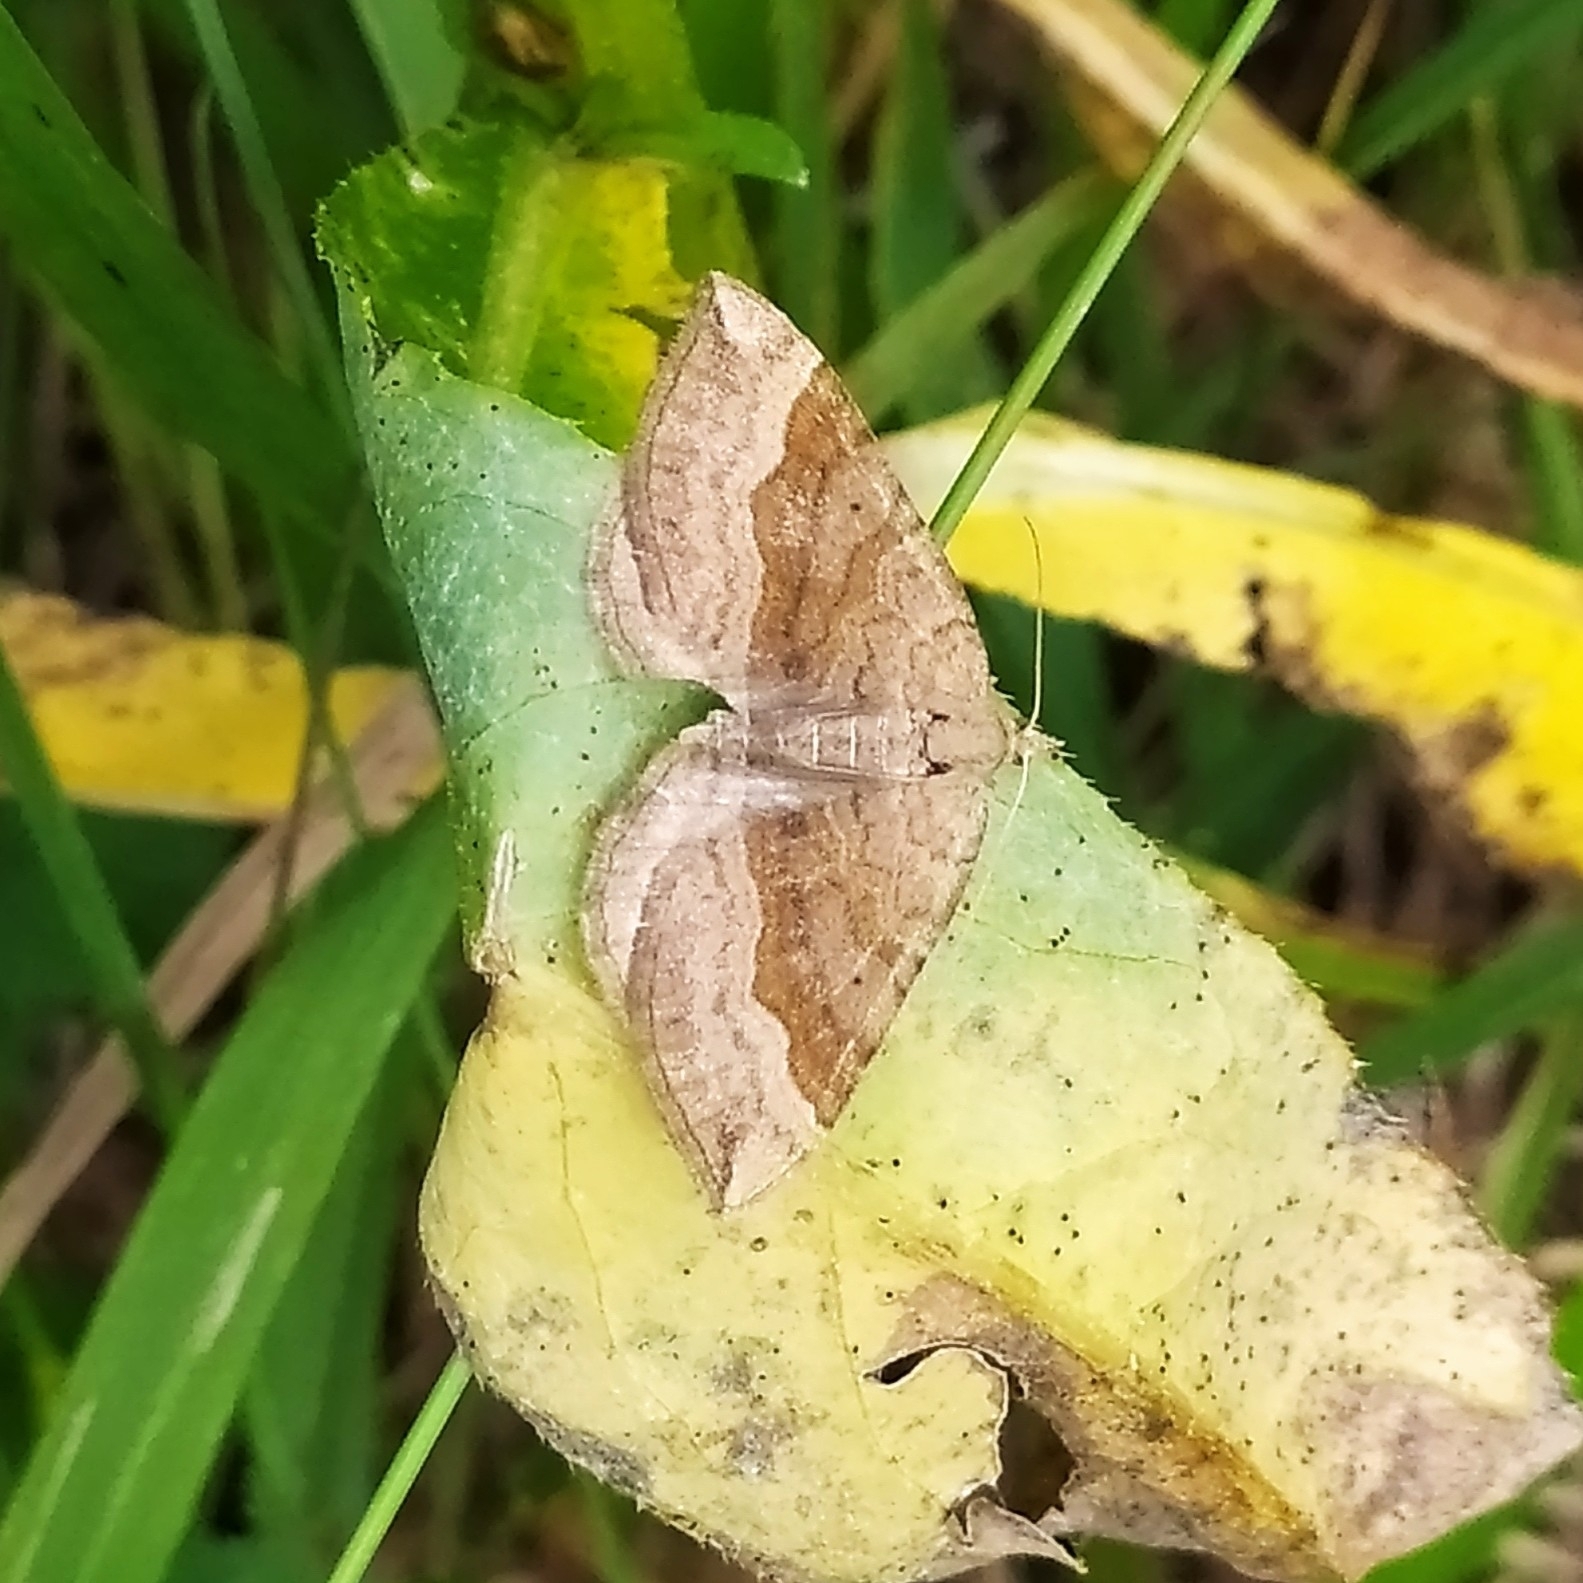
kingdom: Animalia
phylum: Arthropoda
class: Insecta
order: Lepidoptera
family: Geometridae
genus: Scotopteryx
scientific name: Scotopteryx chenopodiata
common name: Shaded broad-bar
